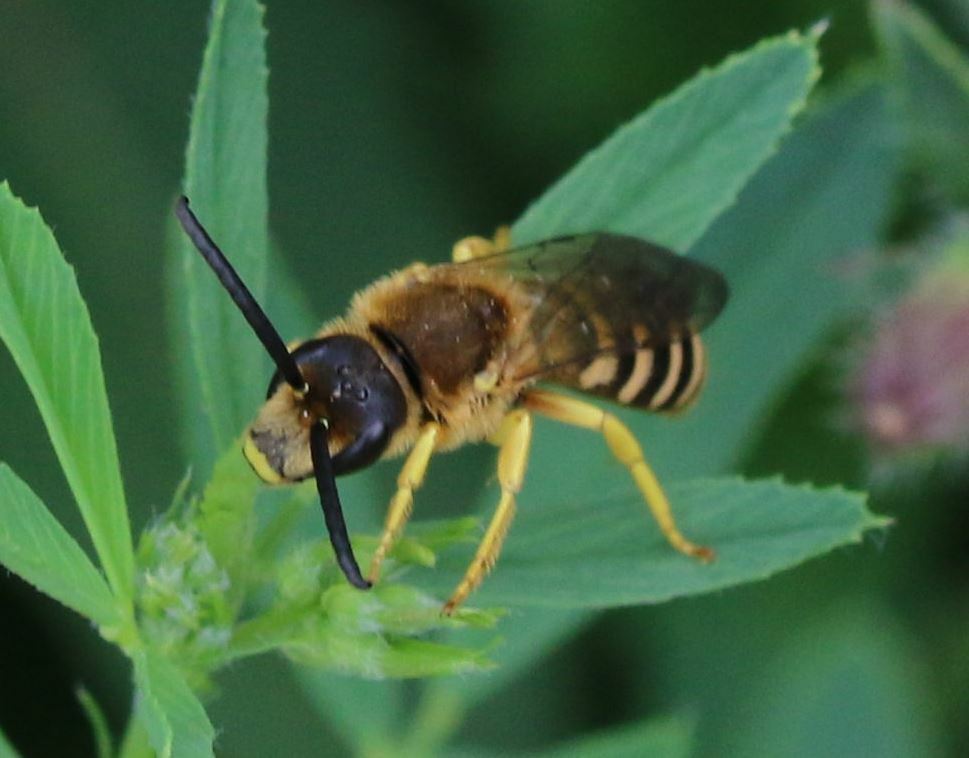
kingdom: Animalia
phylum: Arthropoda
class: Insecta
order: Hymenoptera
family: Halictidae
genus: Halictus
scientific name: Halictus scabiosae
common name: Great banded furrow bee
